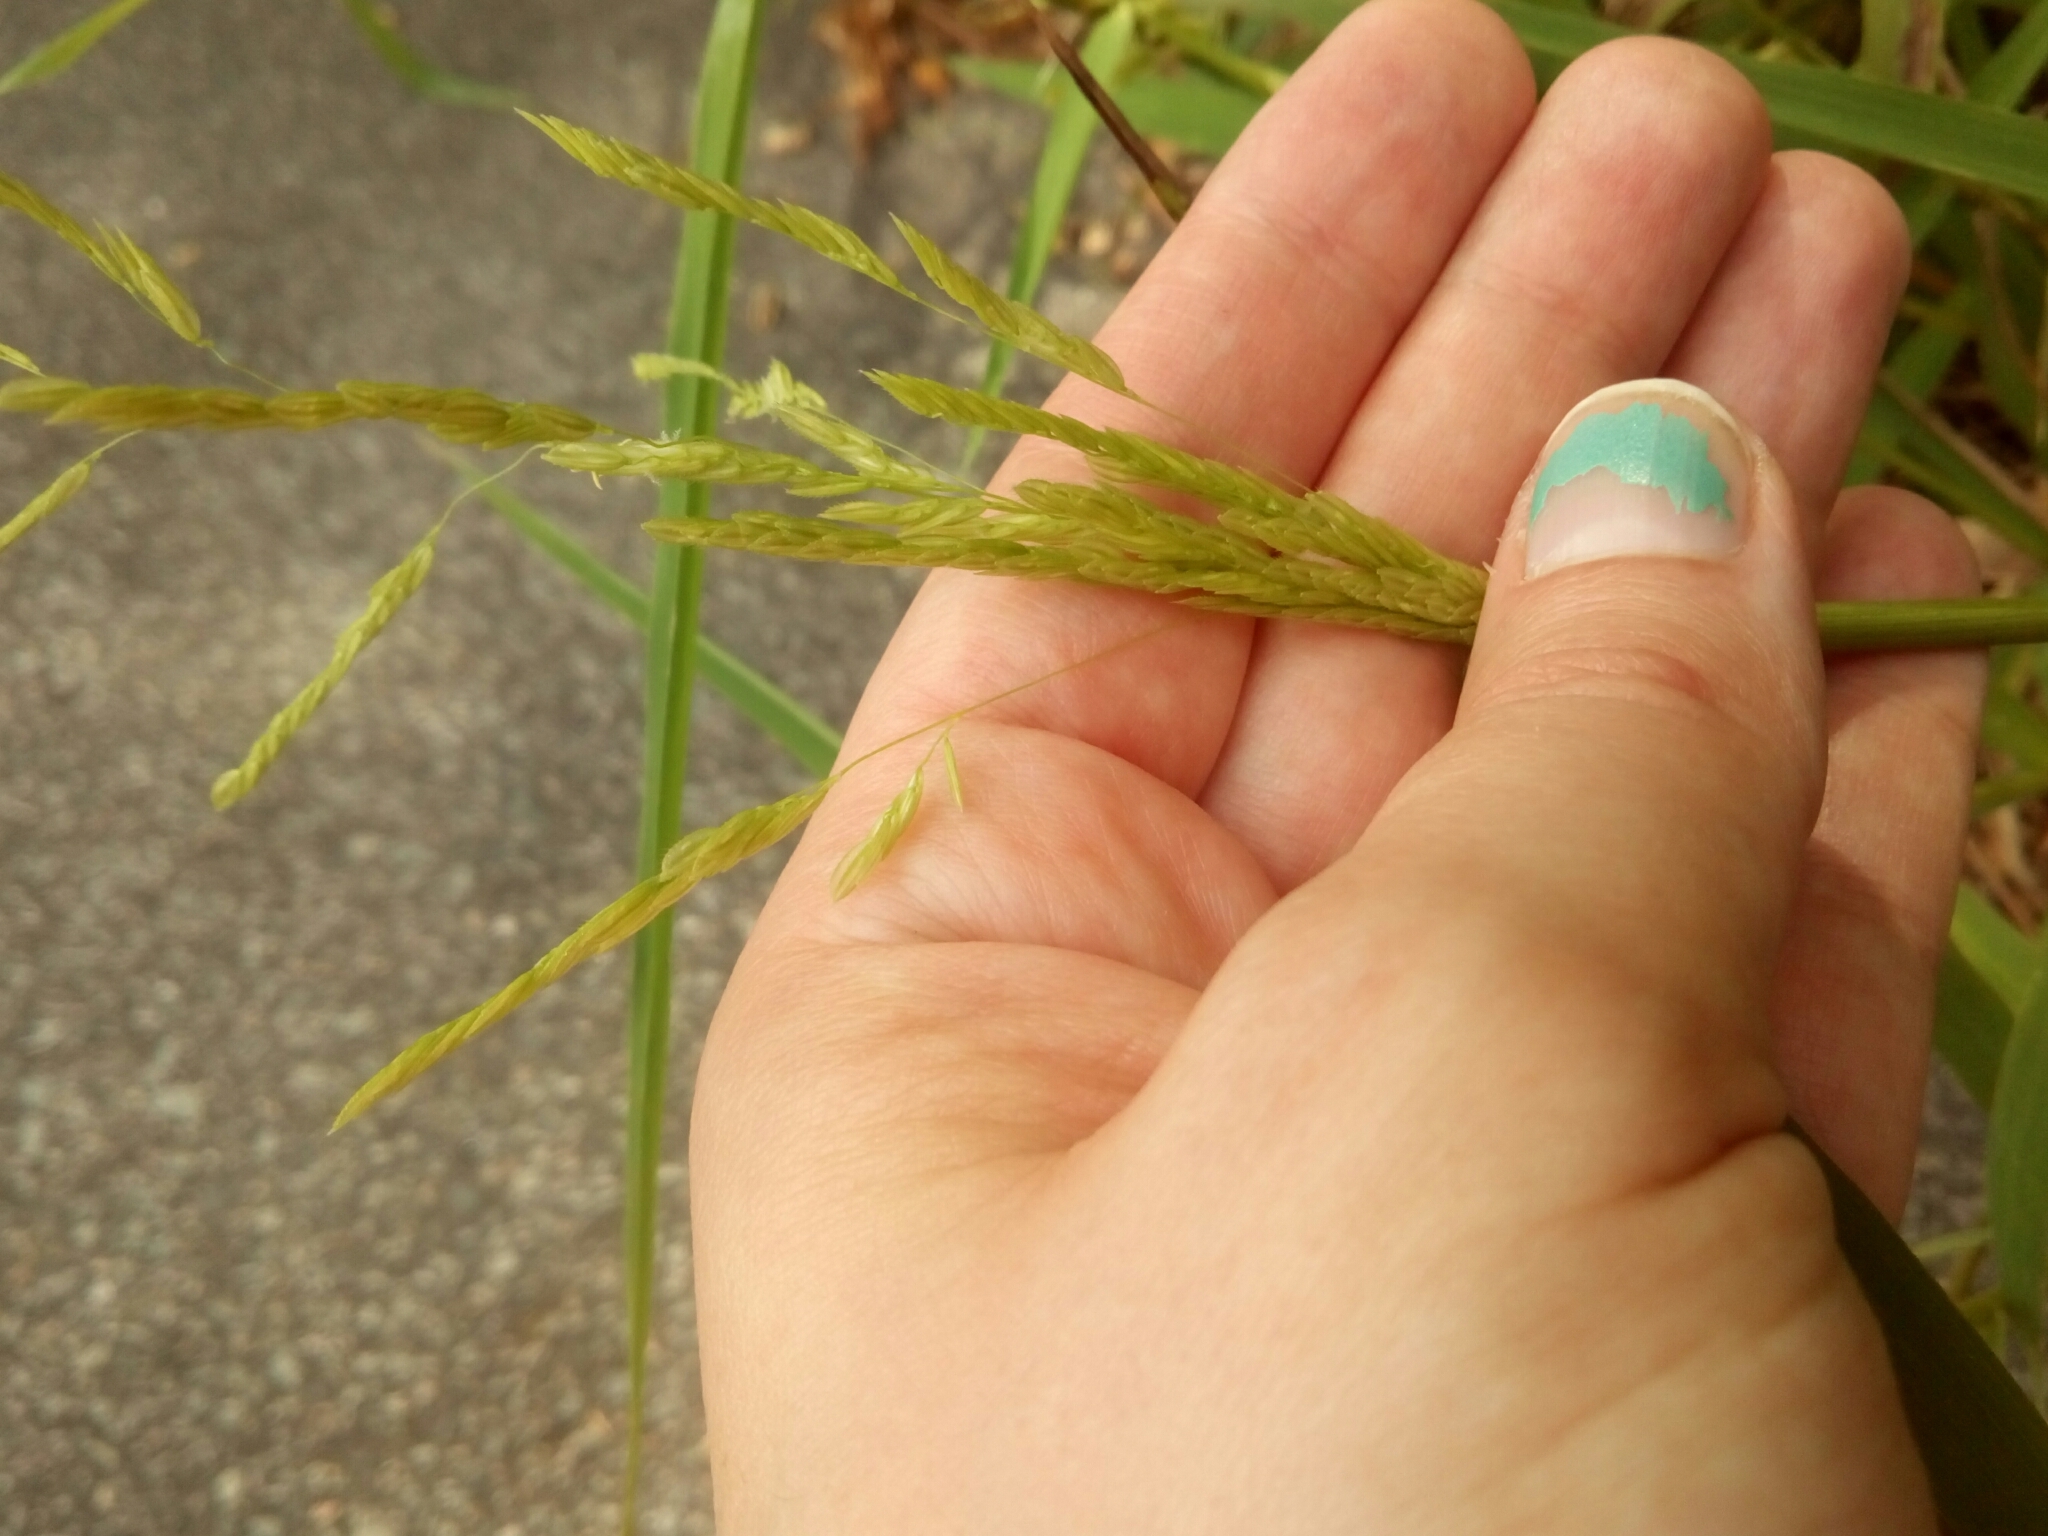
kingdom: Plantae
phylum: Tracheophyta
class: Liliopsida
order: Poales
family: Poaceae
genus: Leersia
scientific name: Leersia oryzoides
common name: Cut-grass
